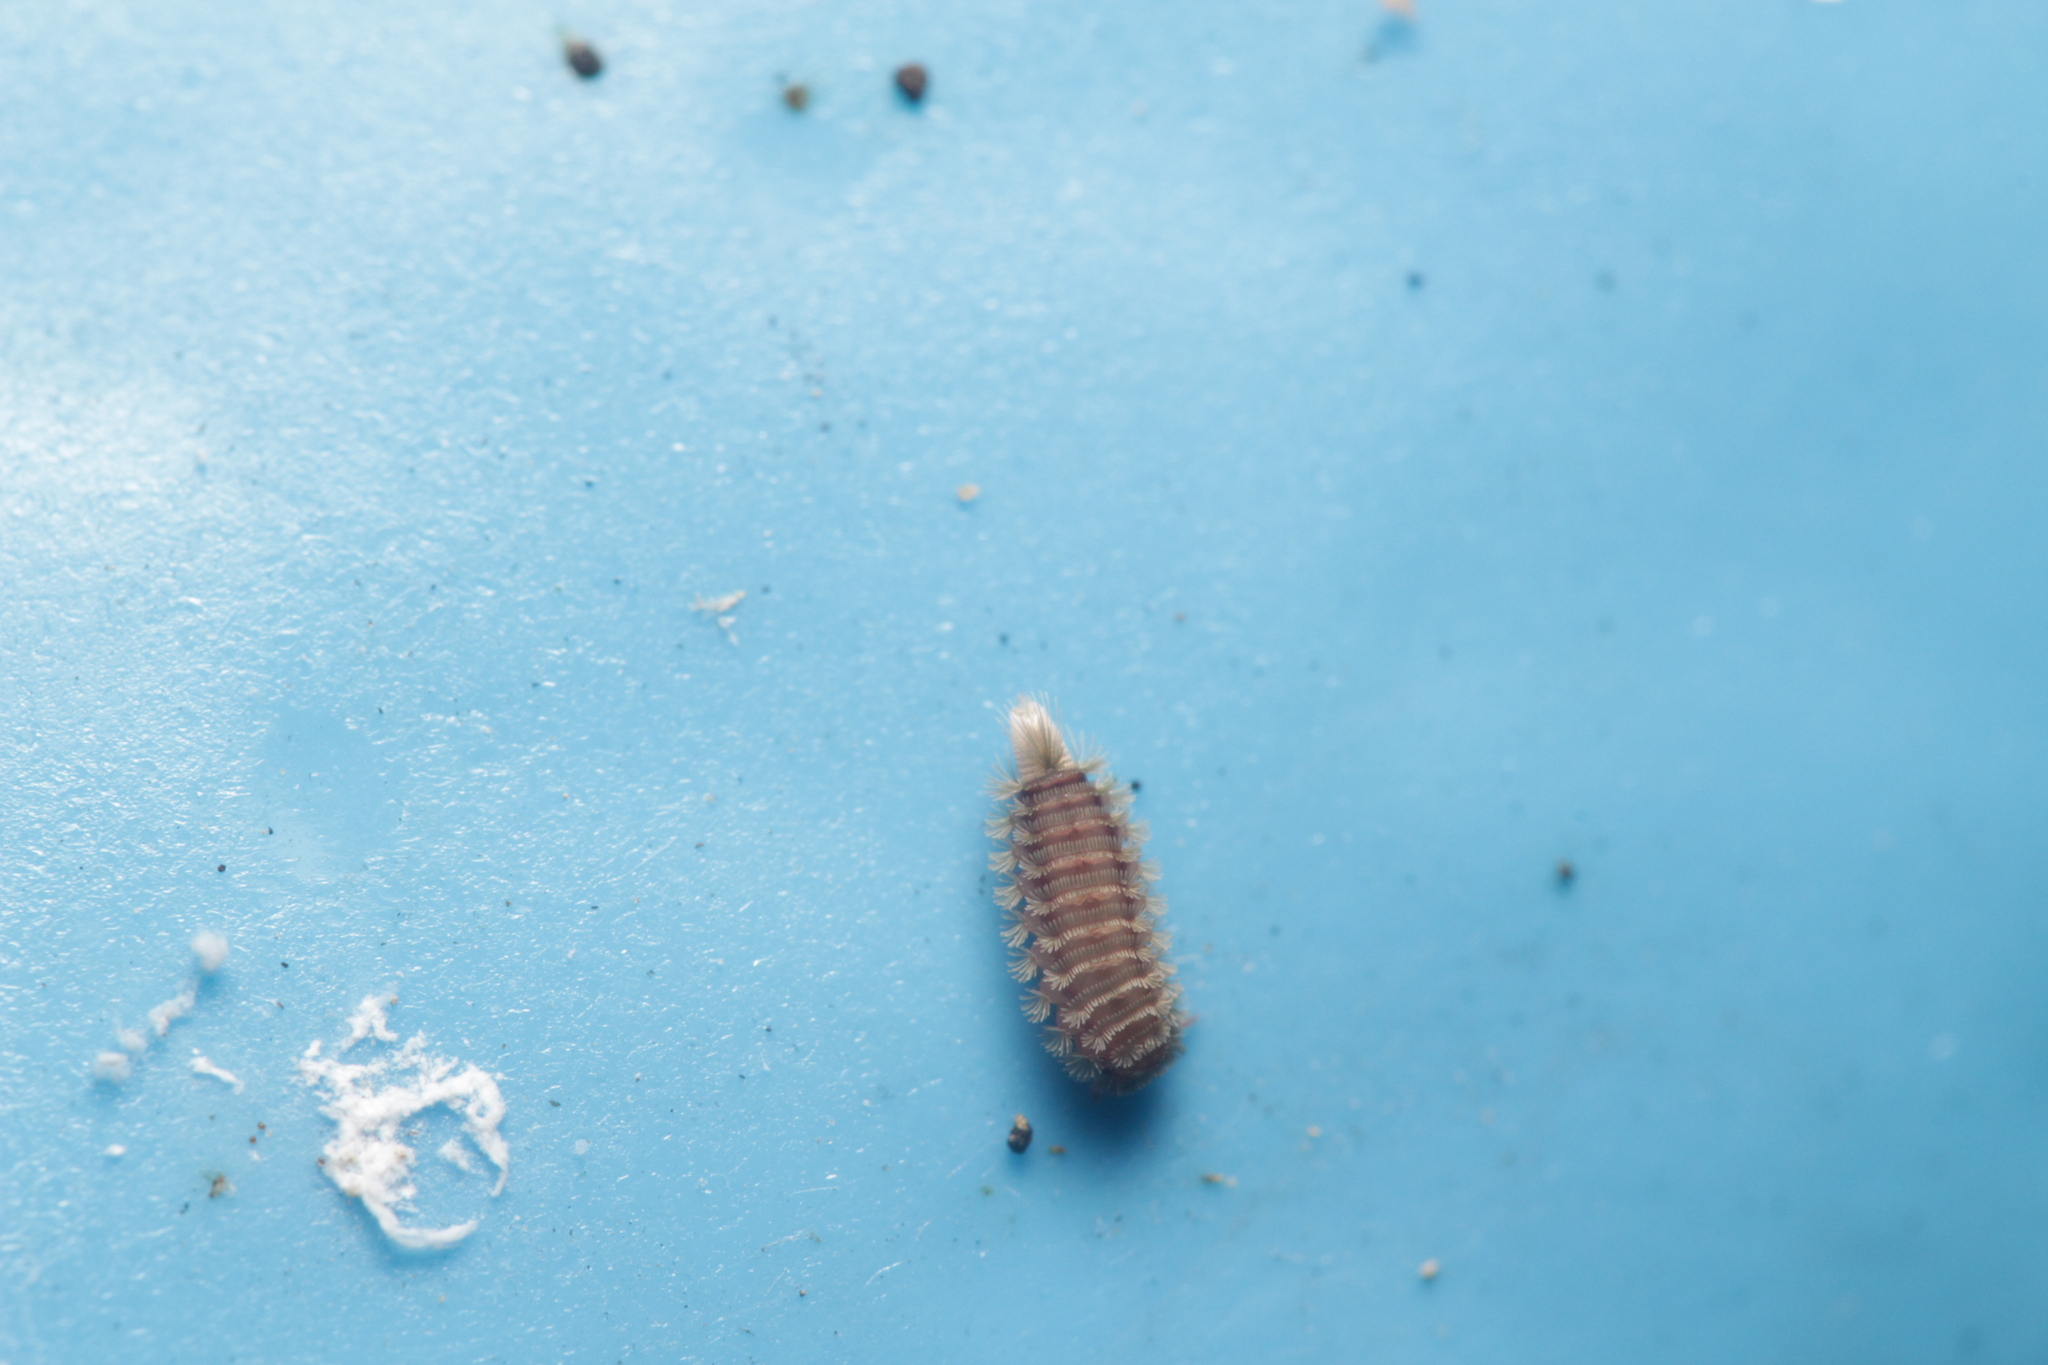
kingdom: Animalia
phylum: Arthropoda
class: Diplopoda
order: Polyxenida
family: Polyxenidae
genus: Polyxenus
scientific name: Polyxenus lagurus
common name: Bristly millipede
